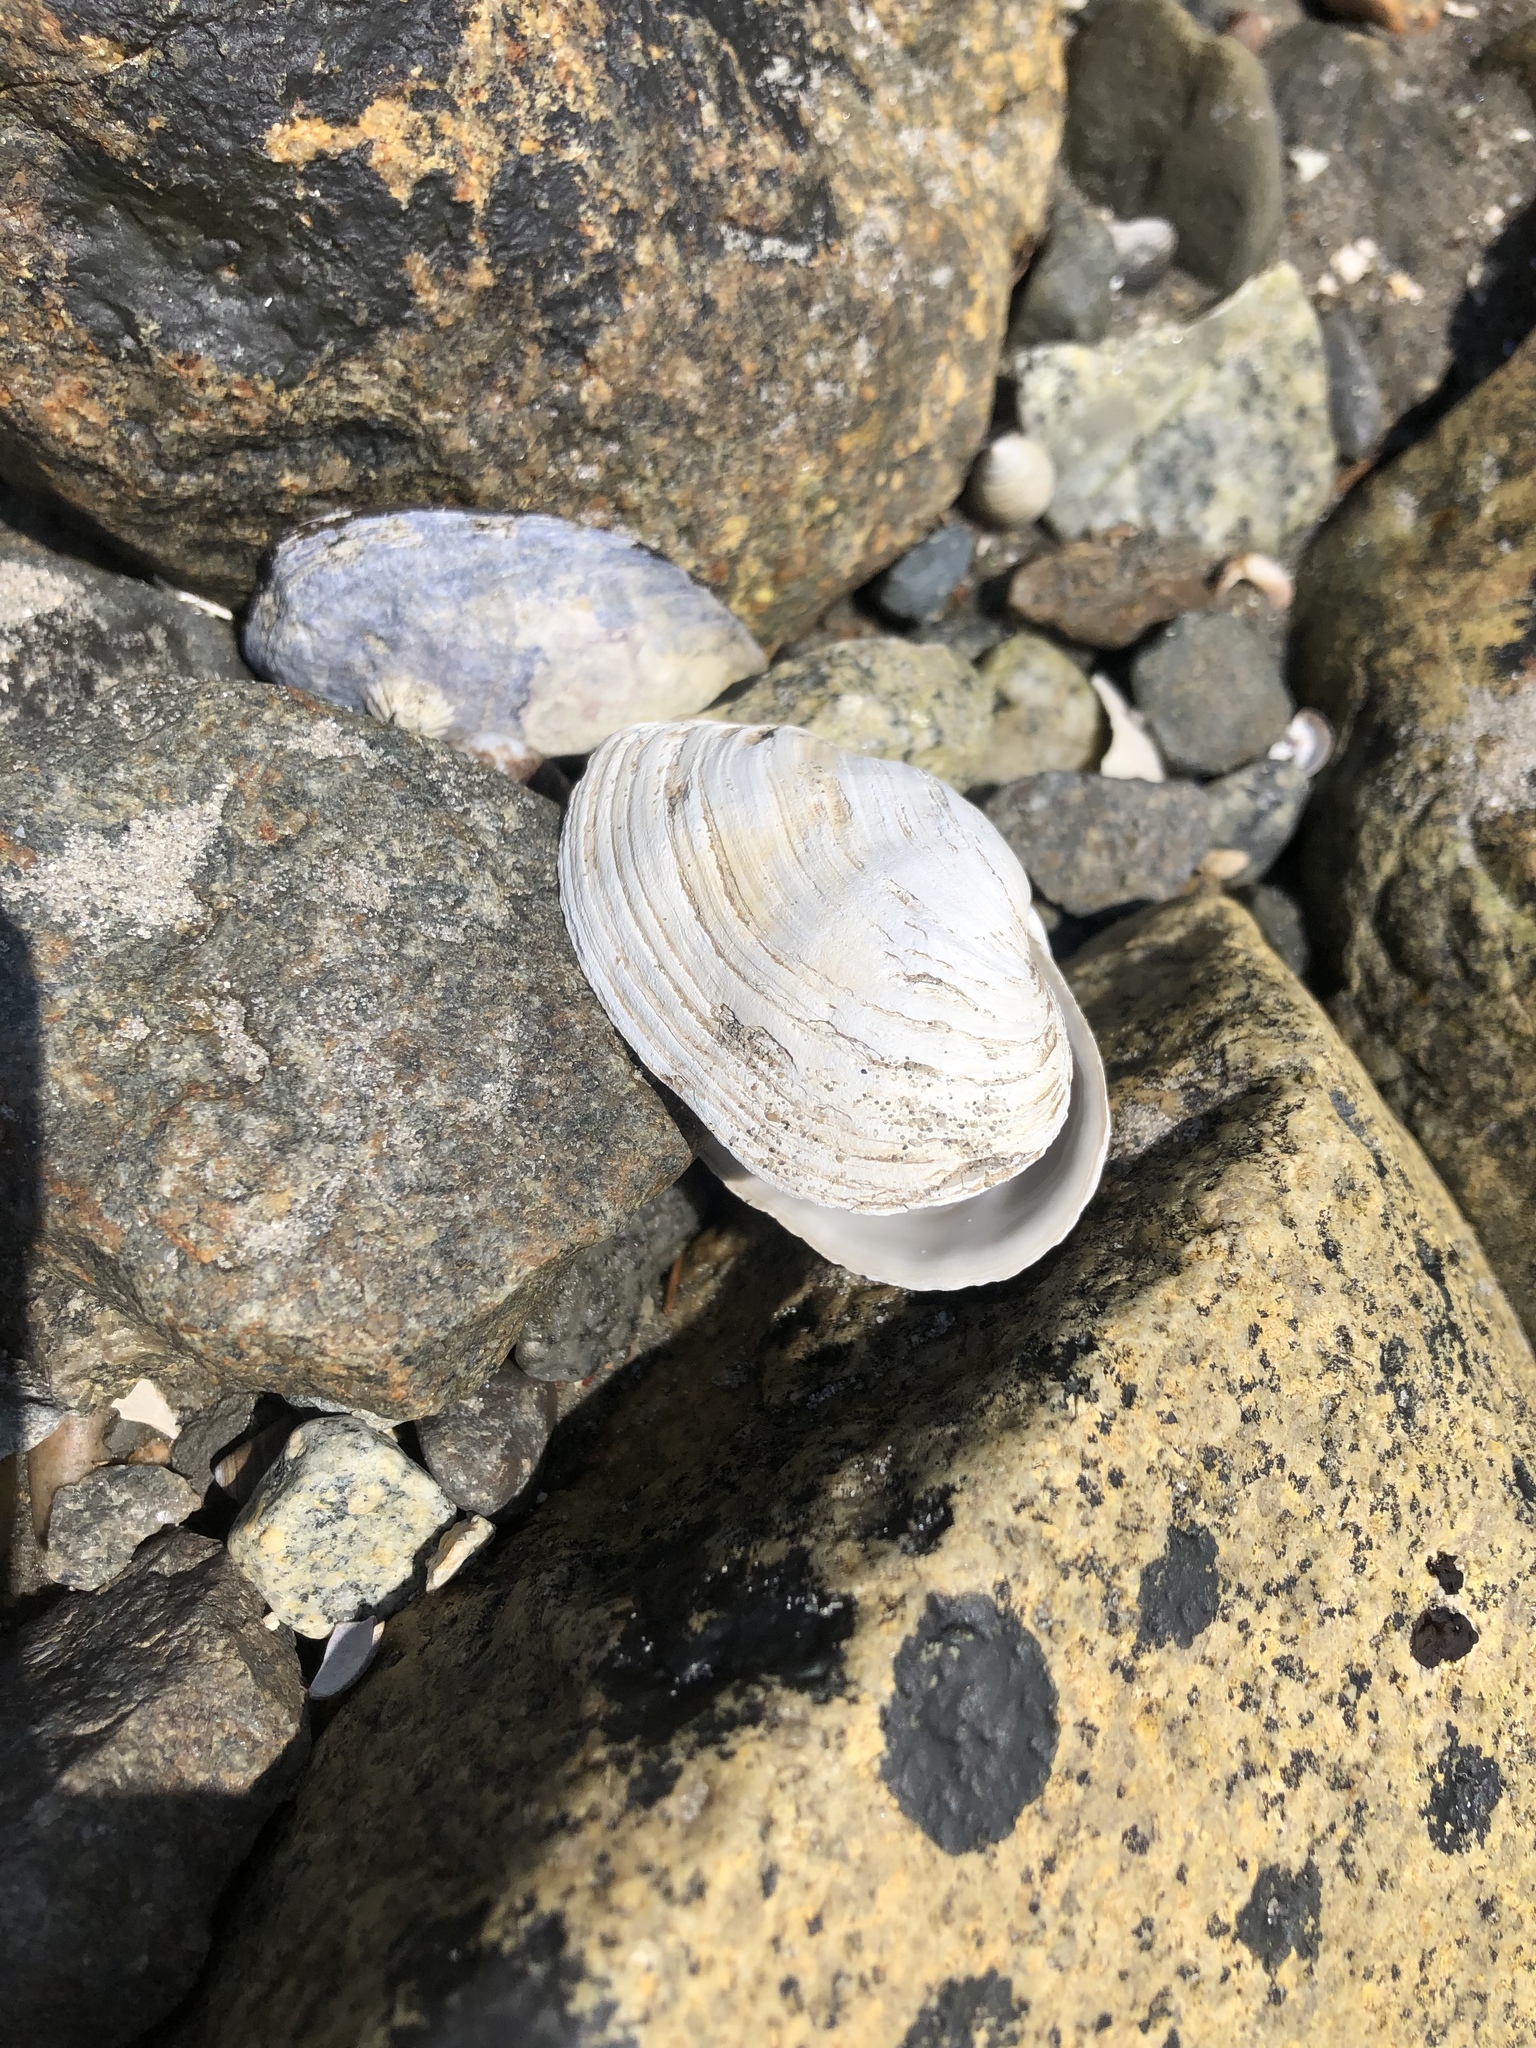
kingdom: Animalia
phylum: Mollusca
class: Bivalvia
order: Myida
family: Myidae
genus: Mya
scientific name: Mya arenaria
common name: Soft-shelled clam
